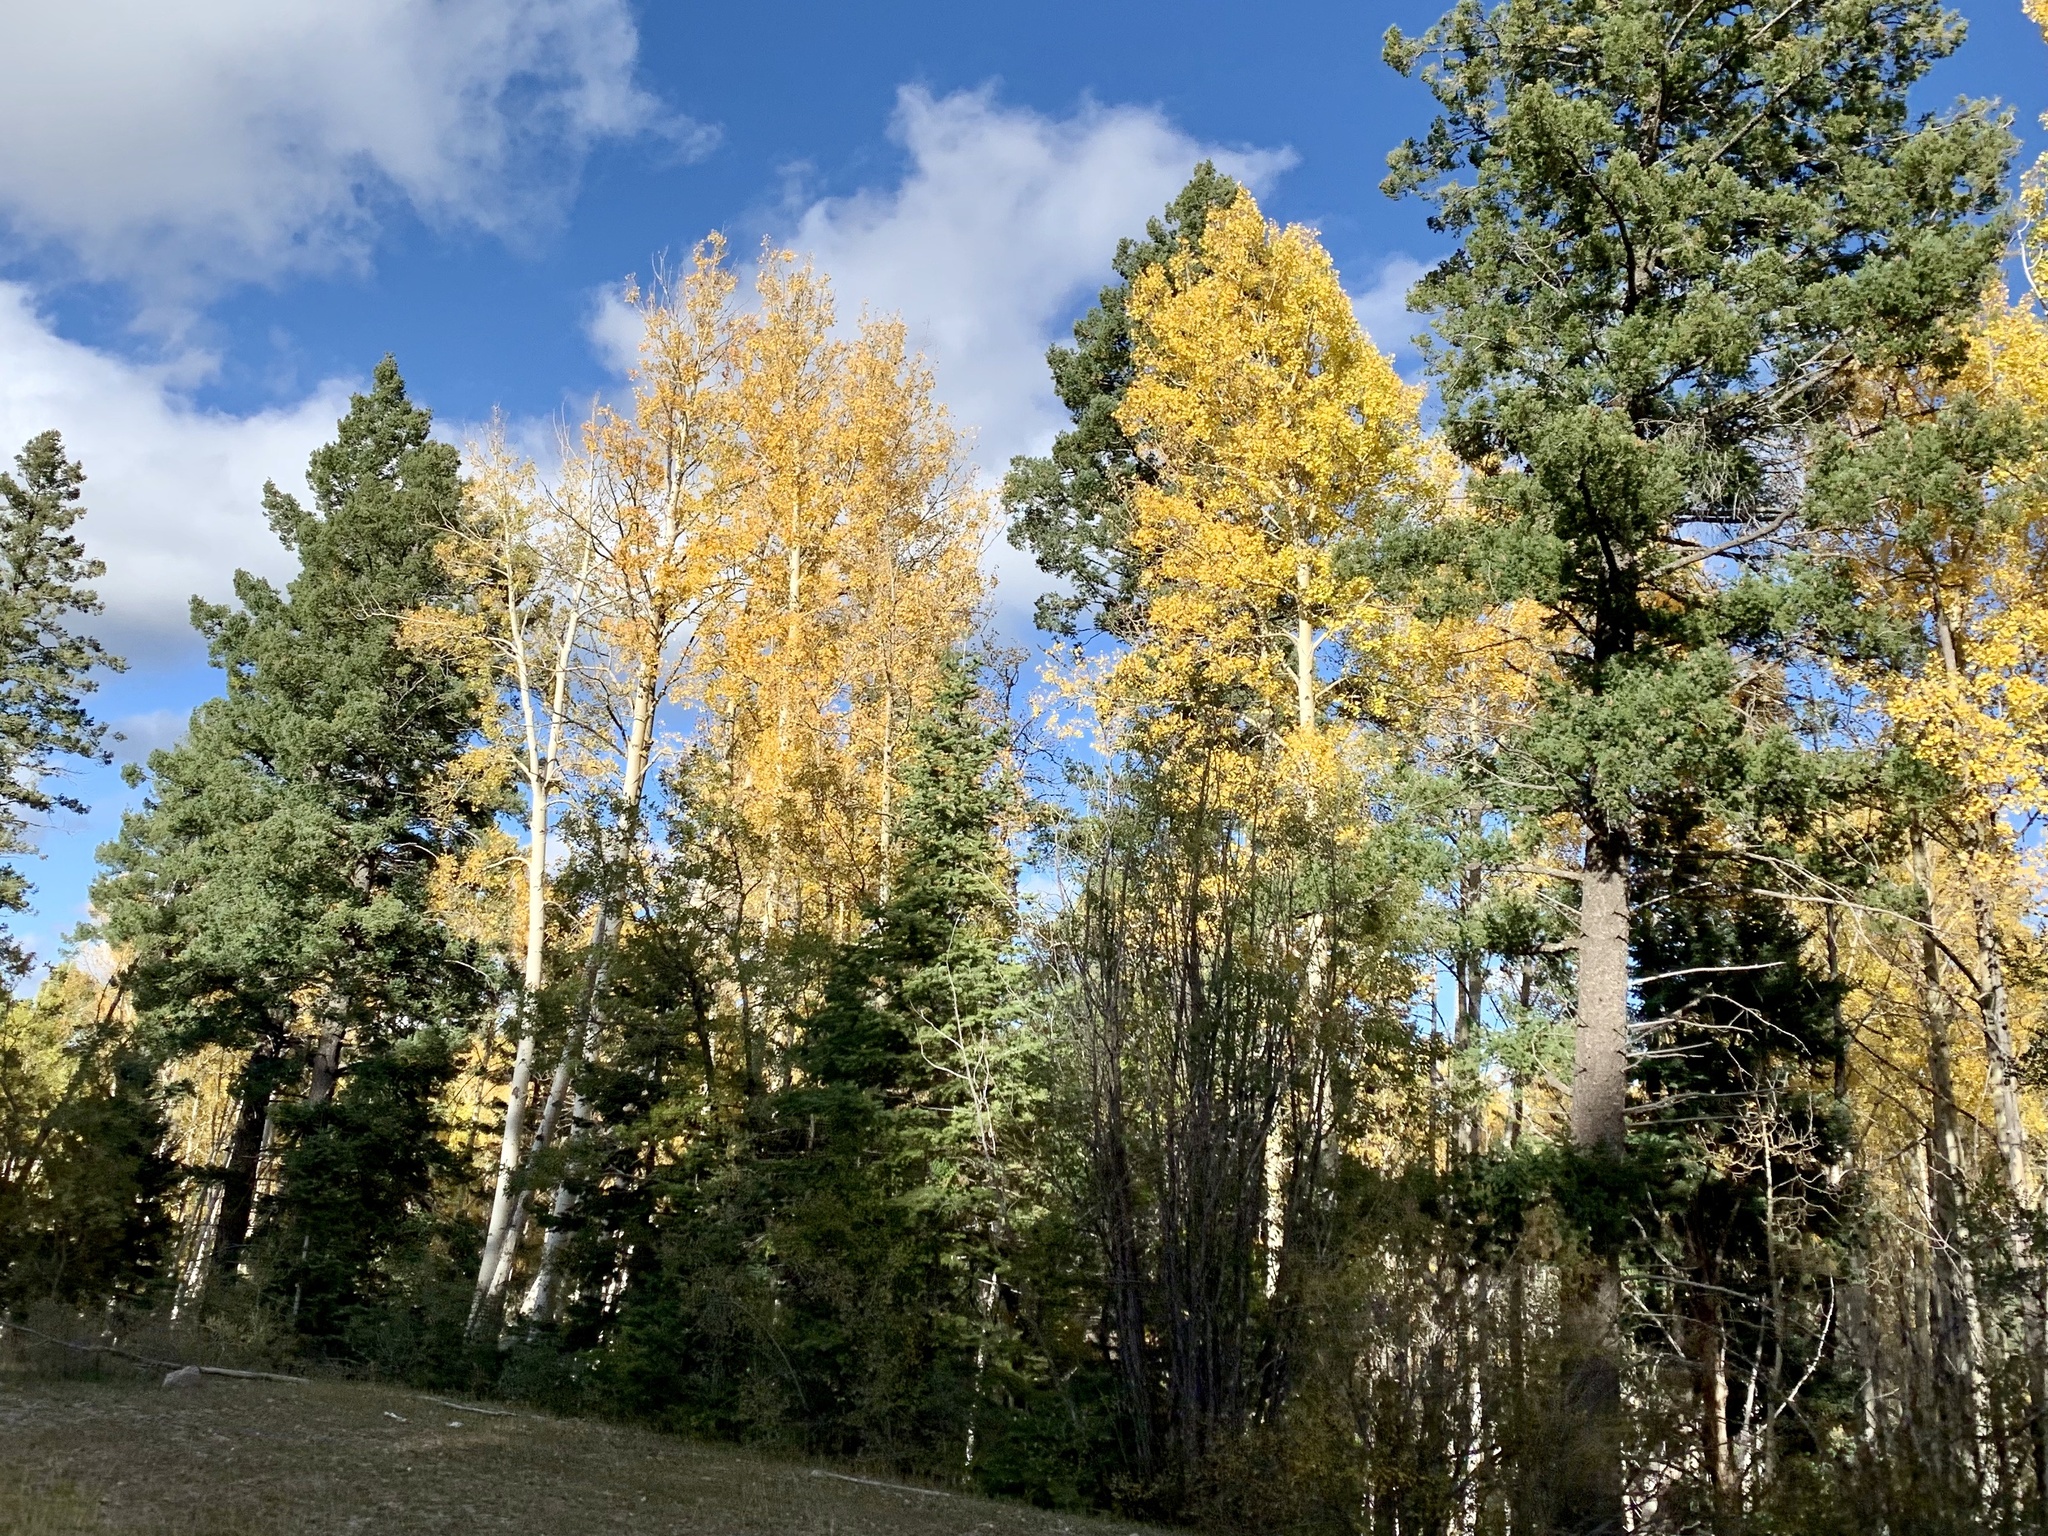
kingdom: Plantae
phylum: Tracheophyta
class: Magnoliopsida
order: Malpighiales
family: Salicaceae
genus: Populus
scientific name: Populus tremuloides
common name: Quaking aspen
